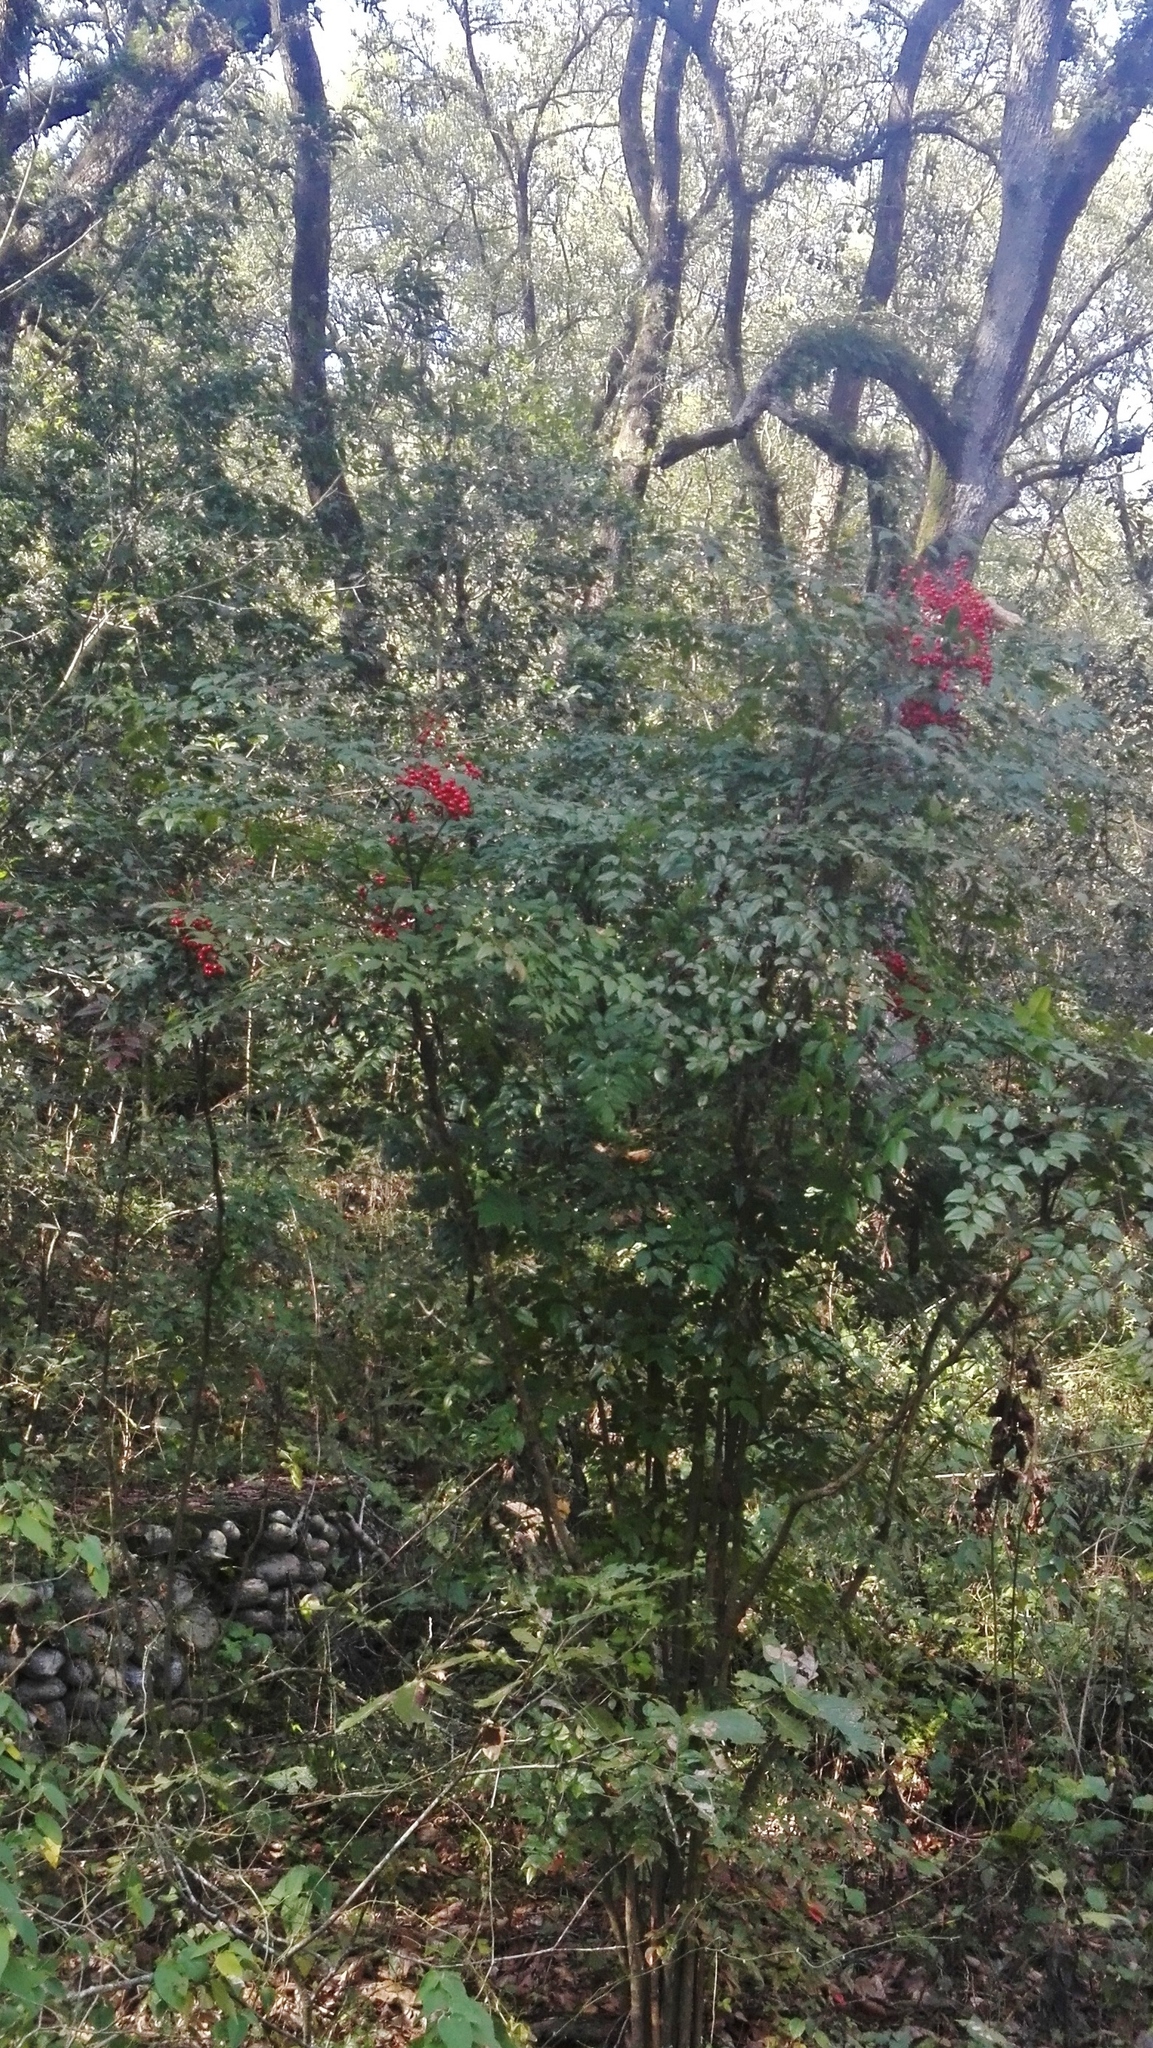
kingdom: Plantae
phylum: Tracheophyta
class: Magnoliopsida
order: Ranunculales
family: Berberidaceae
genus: Nandina
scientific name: Nandina domestica
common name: Sacred bamboo
